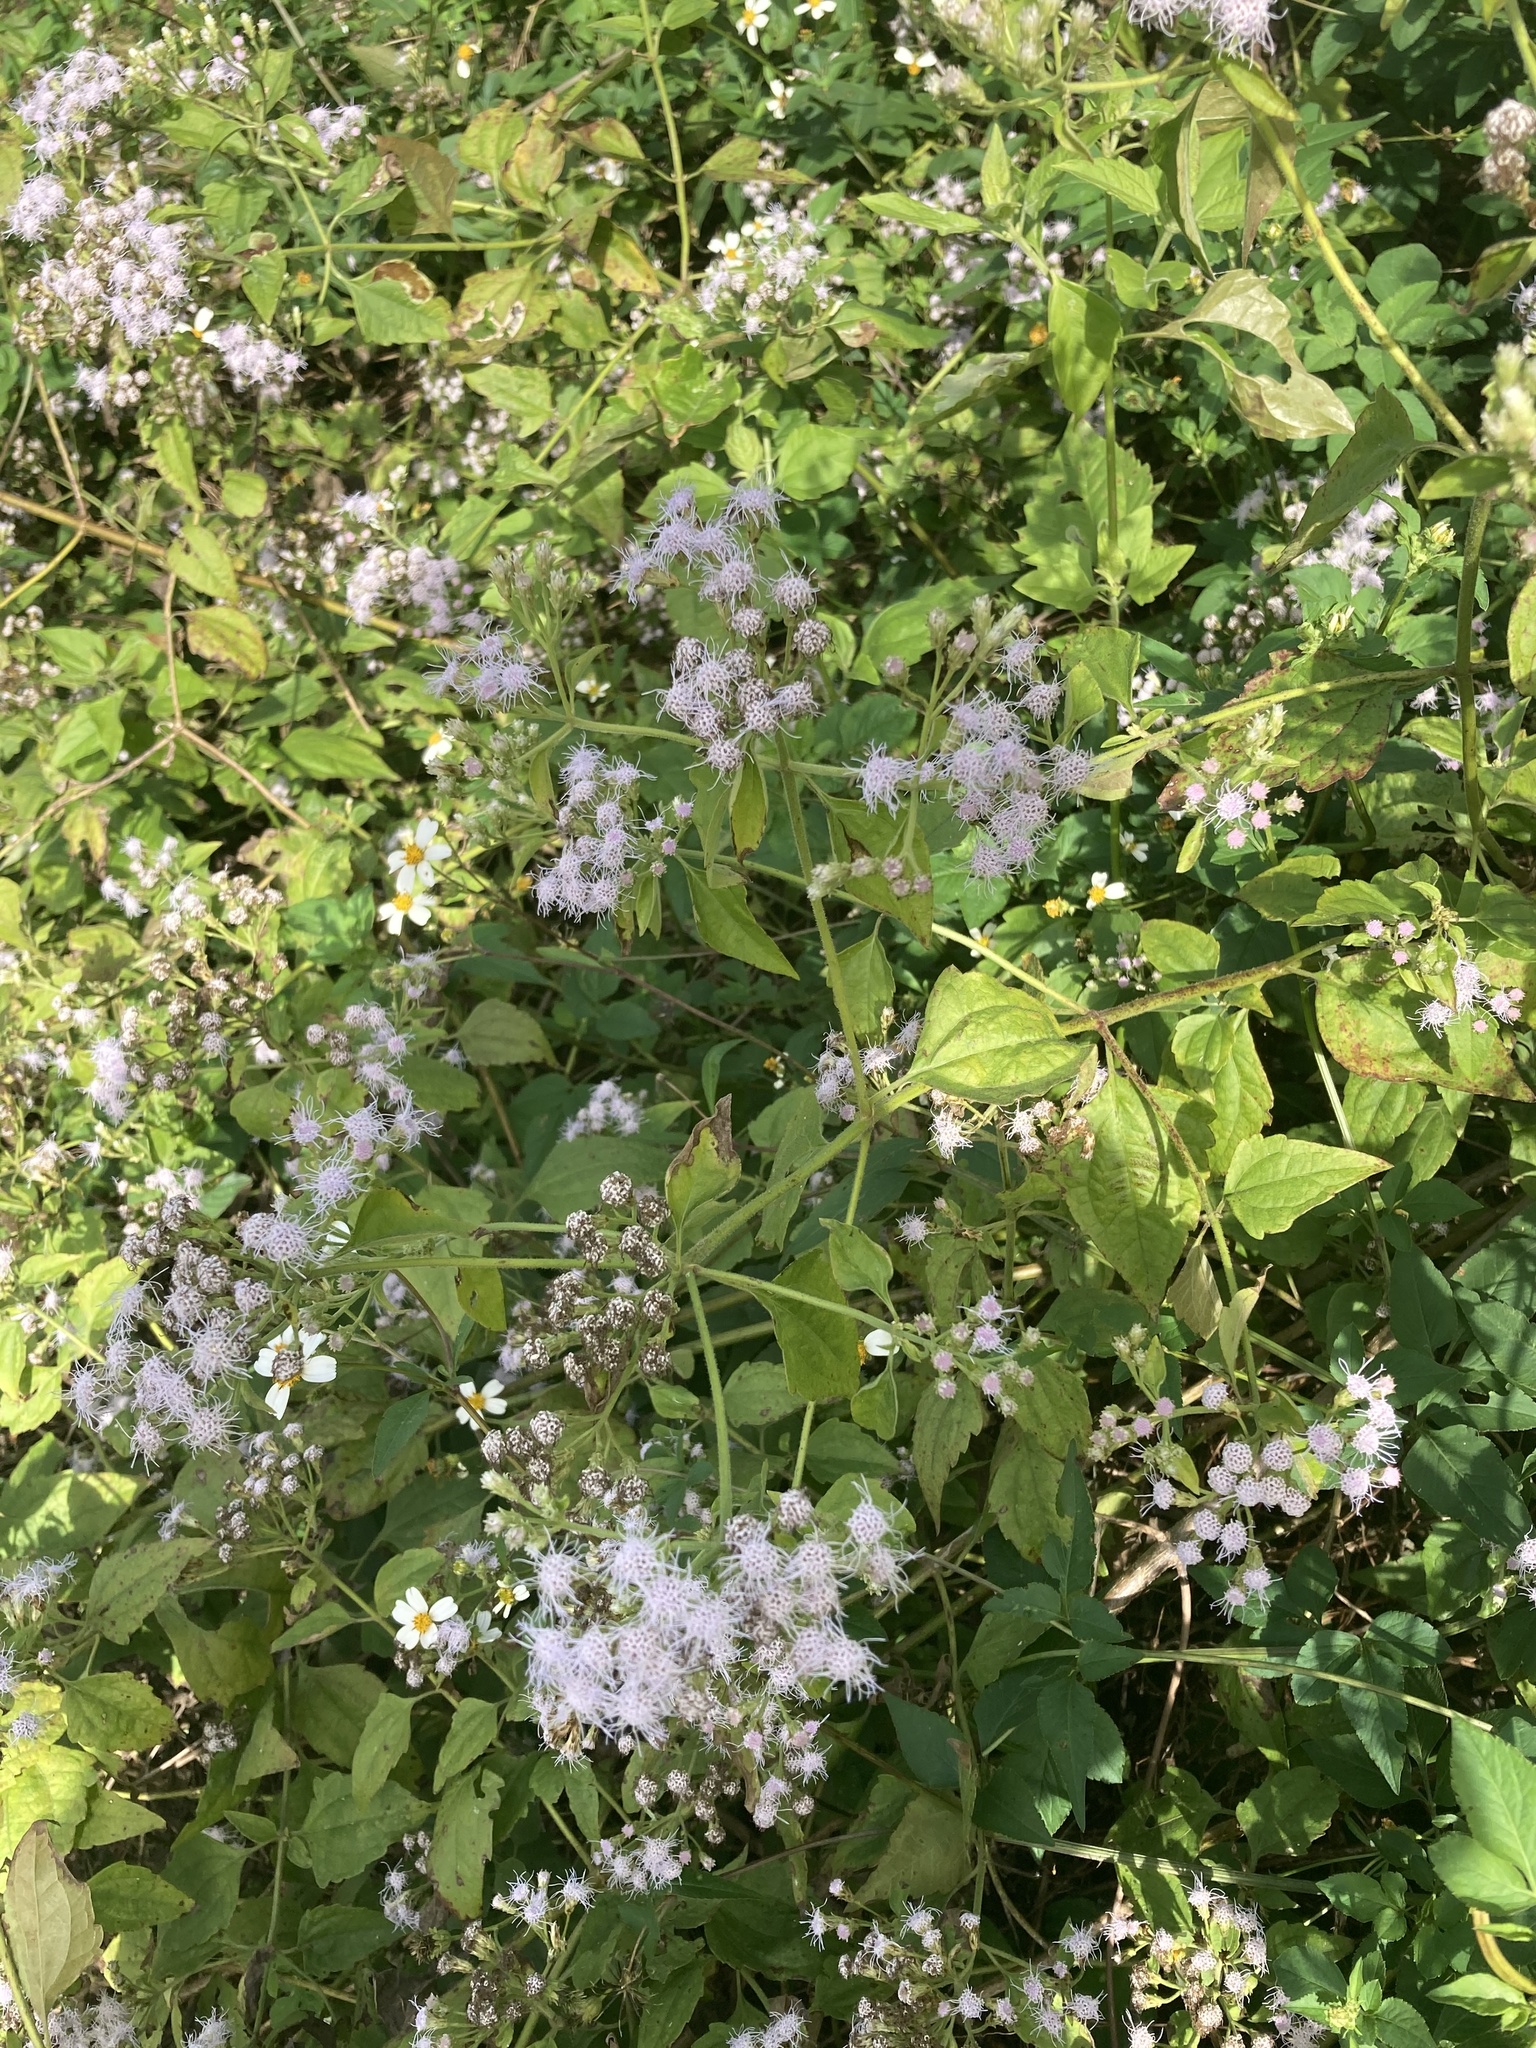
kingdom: Plantae
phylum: Tracheophyta
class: Magnoliopsida
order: Asterales
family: Asteraceae
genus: Chromolaena
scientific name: Chromolaena odorata
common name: Siamweed
